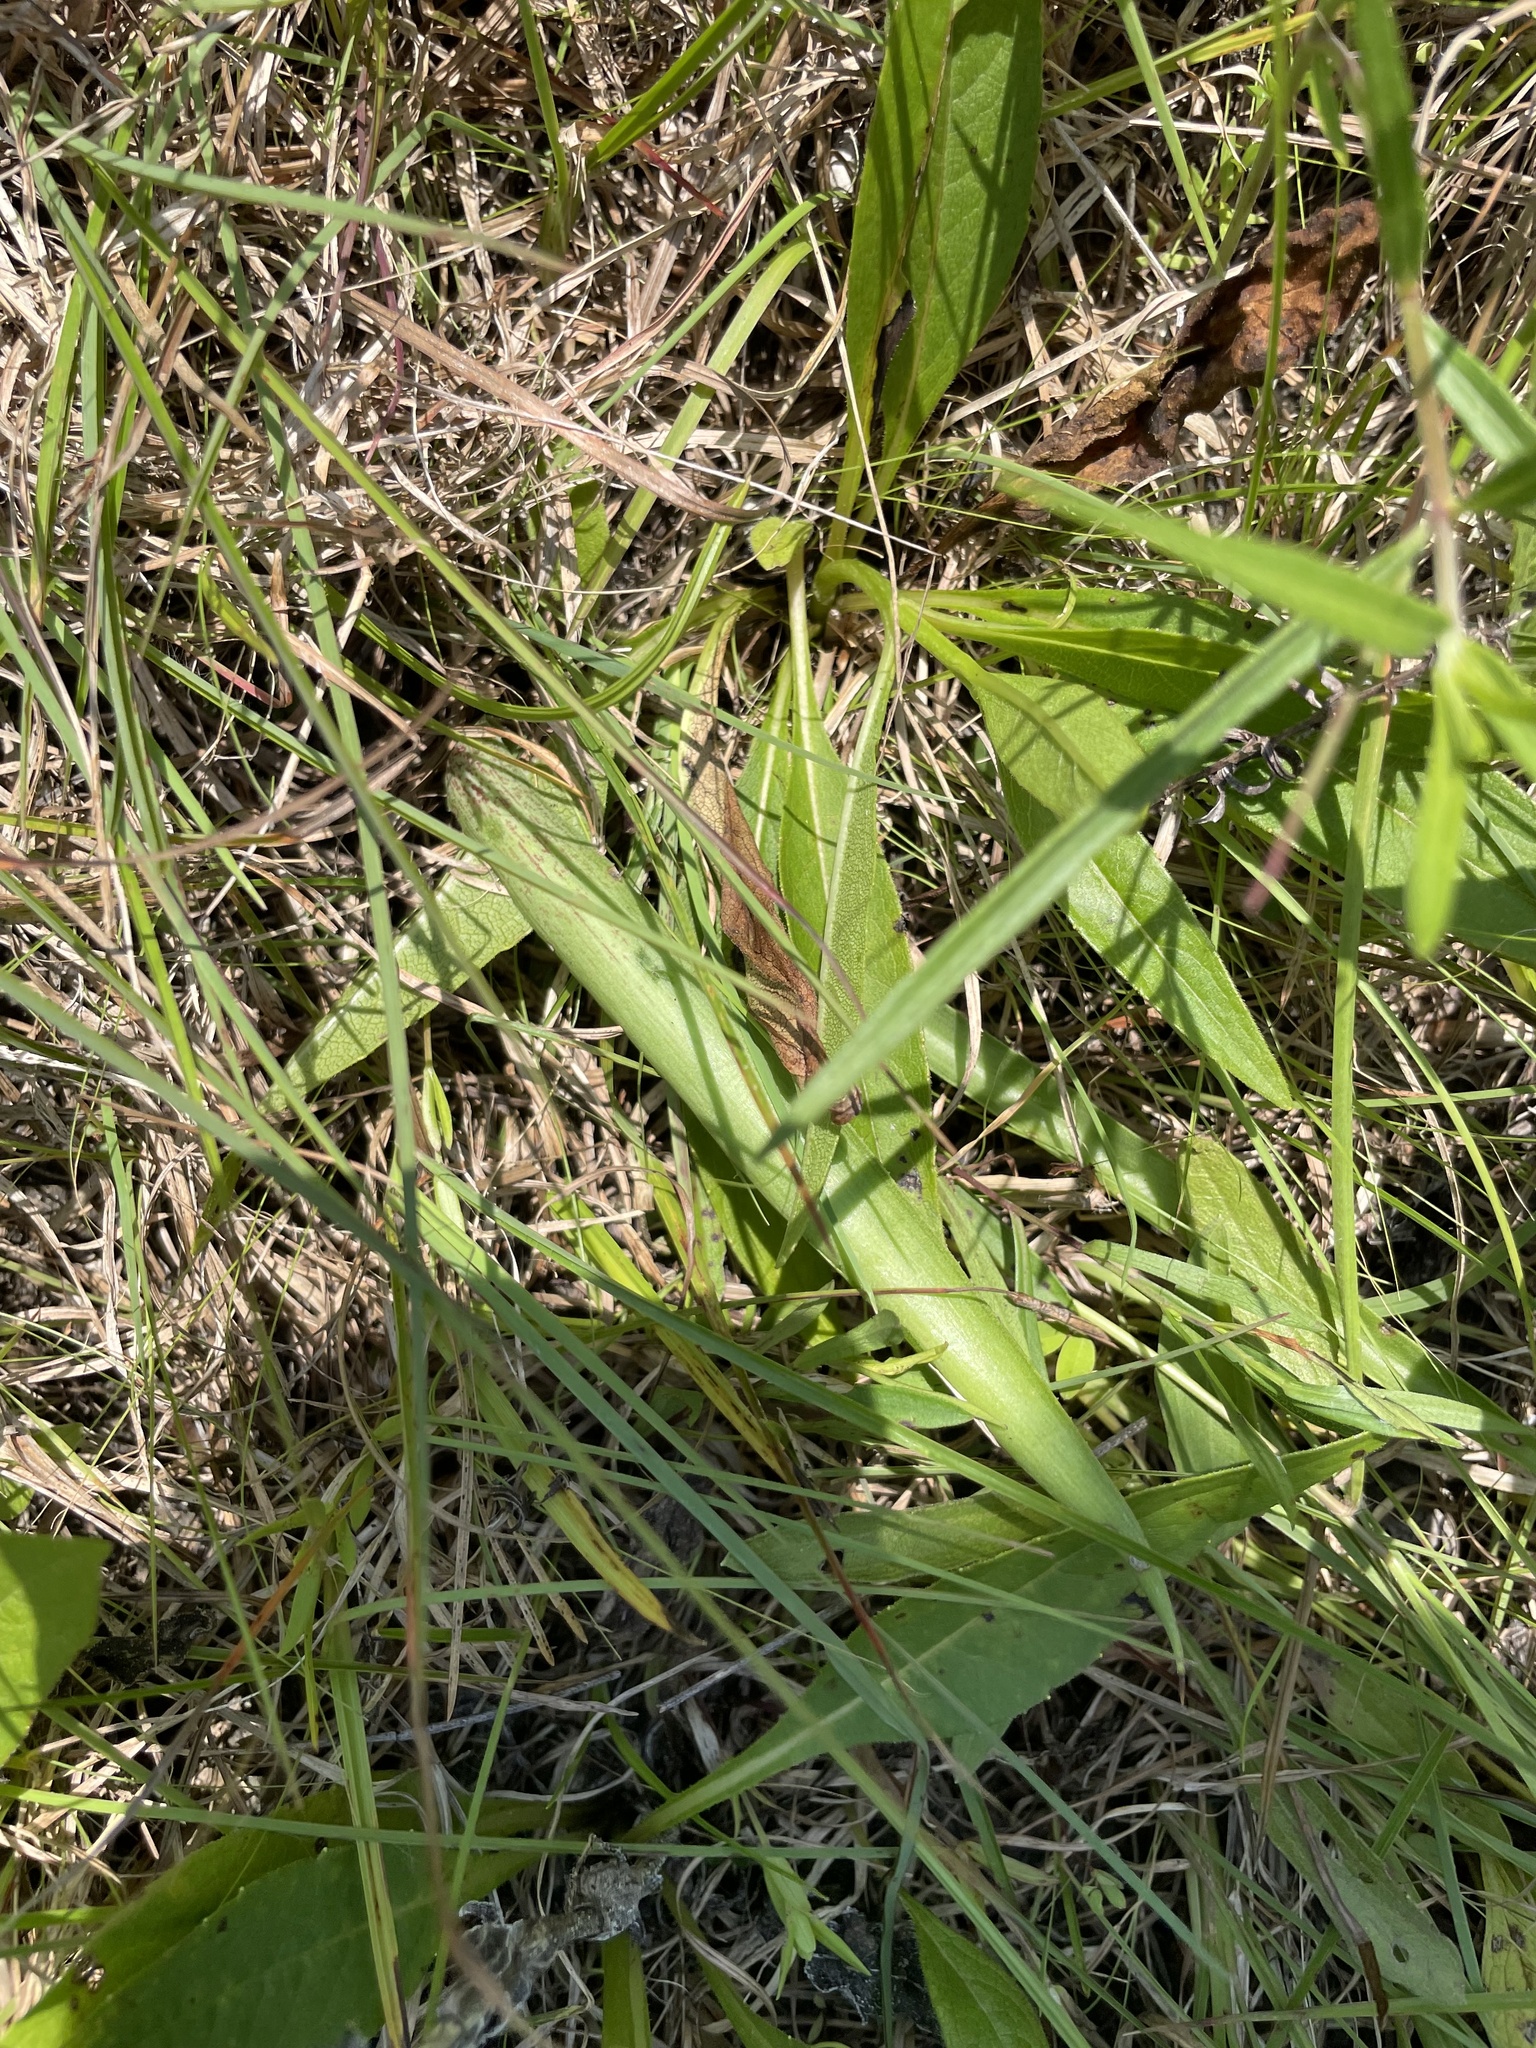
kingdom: Plantae
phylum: Tracheophyta
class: Liliopsida
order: Asparagales
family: Asparagaceae
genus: Agave
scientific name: Agave virginica
